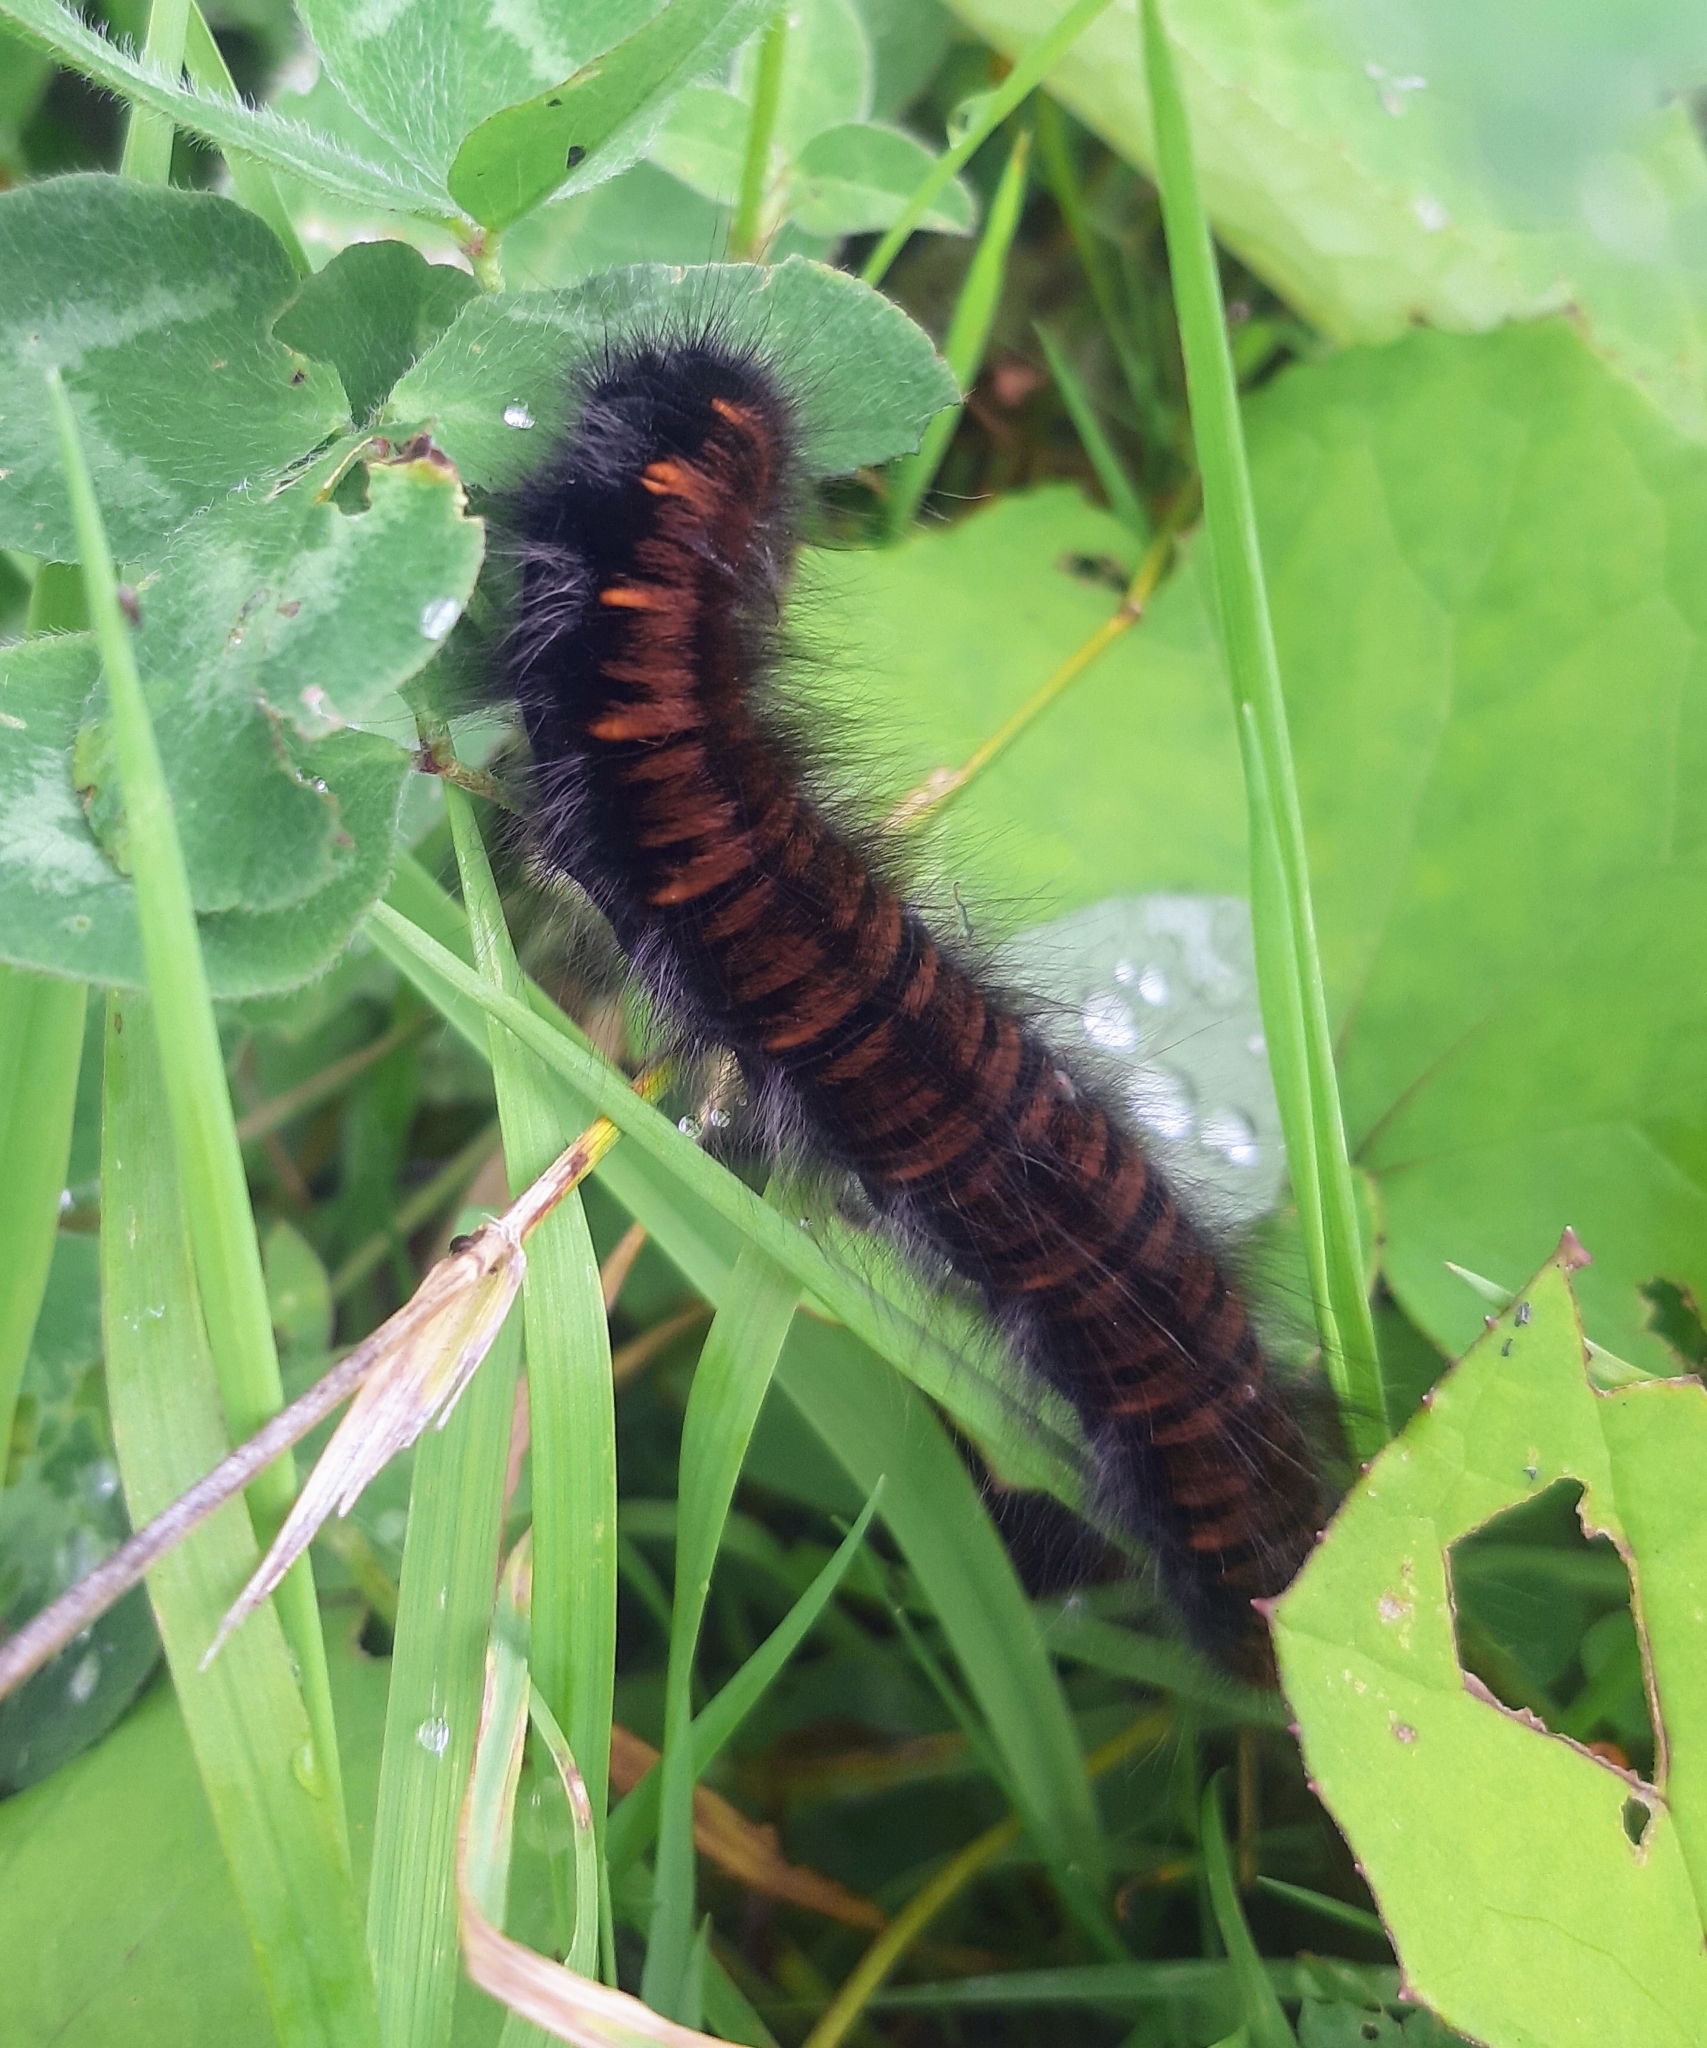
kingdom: Animalia
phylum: Arthropoda
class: Insecta
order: Lepidoptera
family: Lasiocampidae
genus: Macrothylacia
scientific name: Macrothylacia rubi
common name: Fox moth
